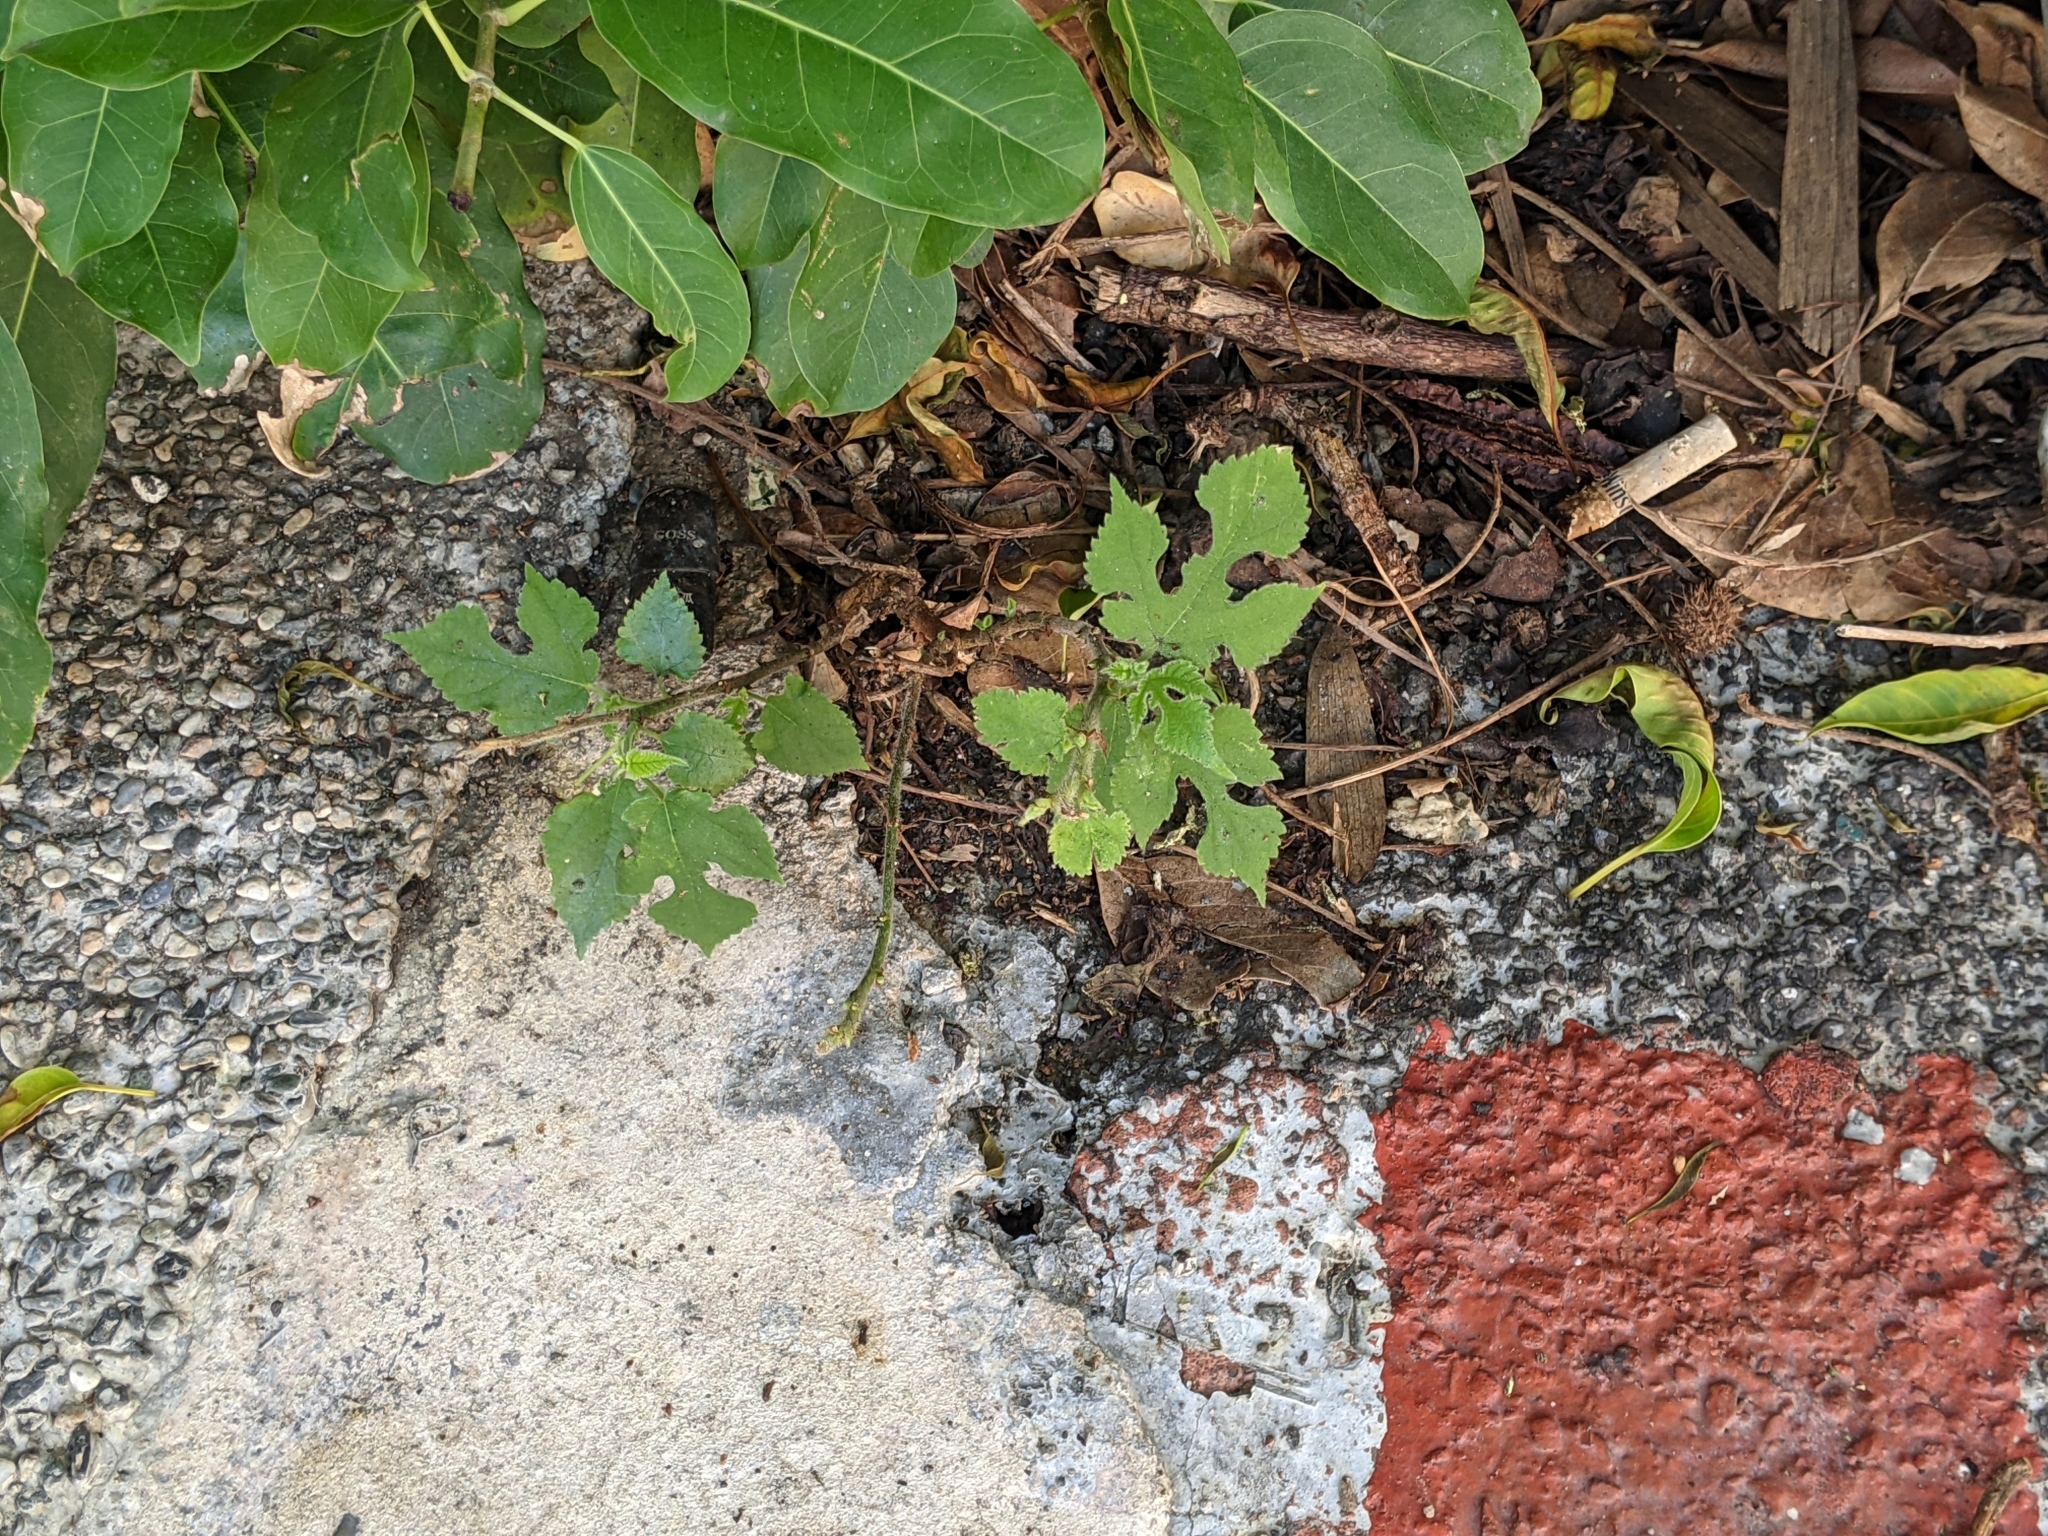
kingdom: Plantae
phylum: Tracheophyta
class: Magnoliopsida
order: Rosales
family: Moraceae
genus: Broussonetia
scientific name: Broussonetia papyrifera
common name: Paper mulberry
